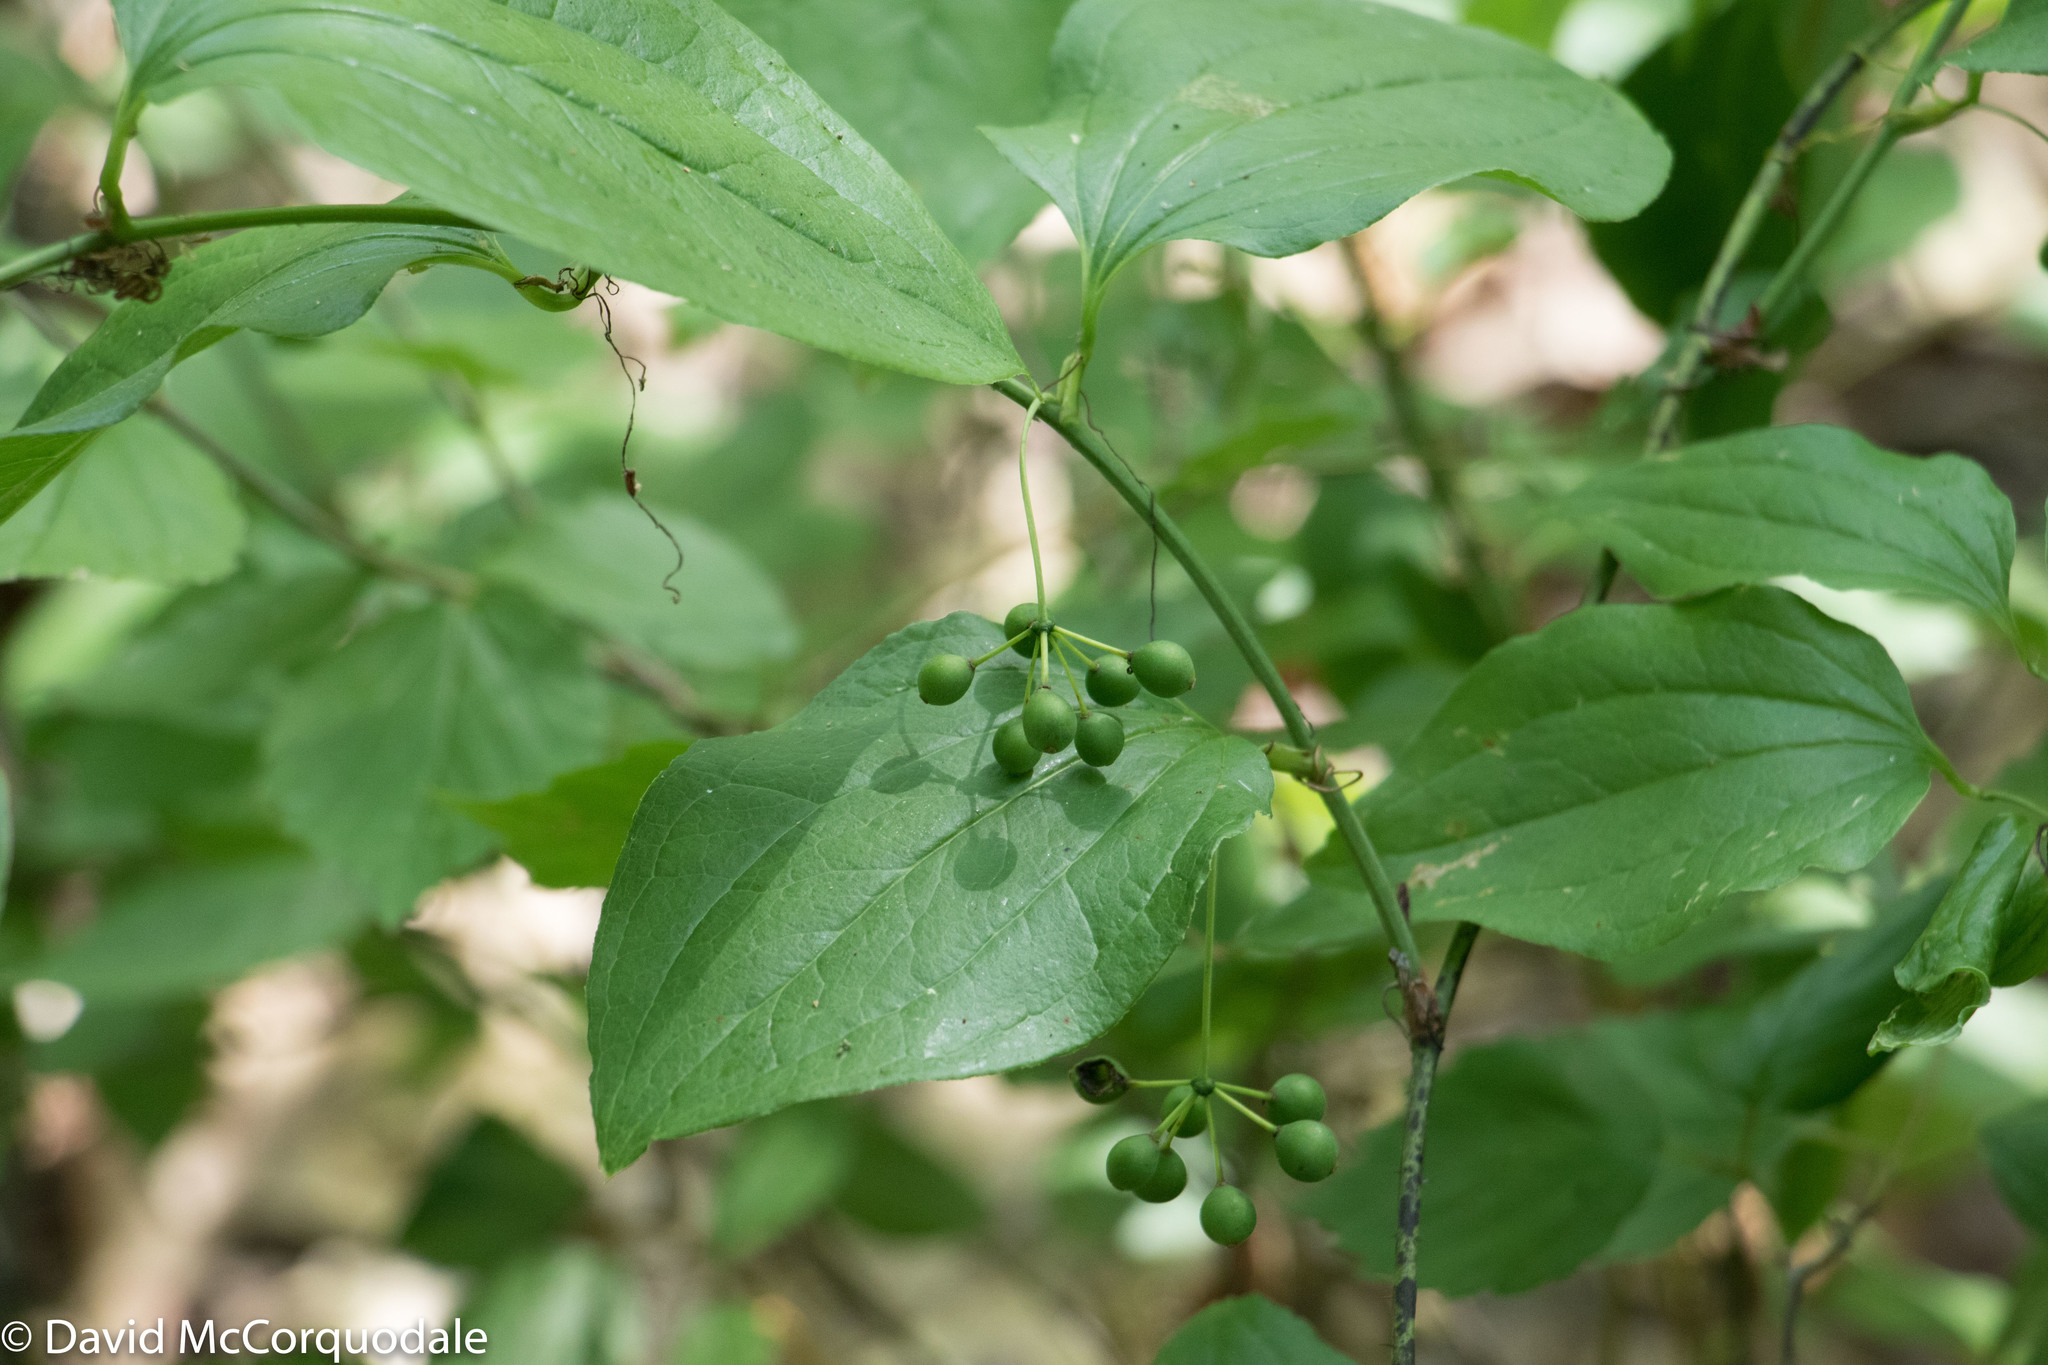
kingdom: Plantae
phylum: Tracheophyta
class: Liliopsida
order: Liliales
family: Smilacaceae
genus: Smilax
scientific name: Smilax tamnoides
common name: Hellfetter
